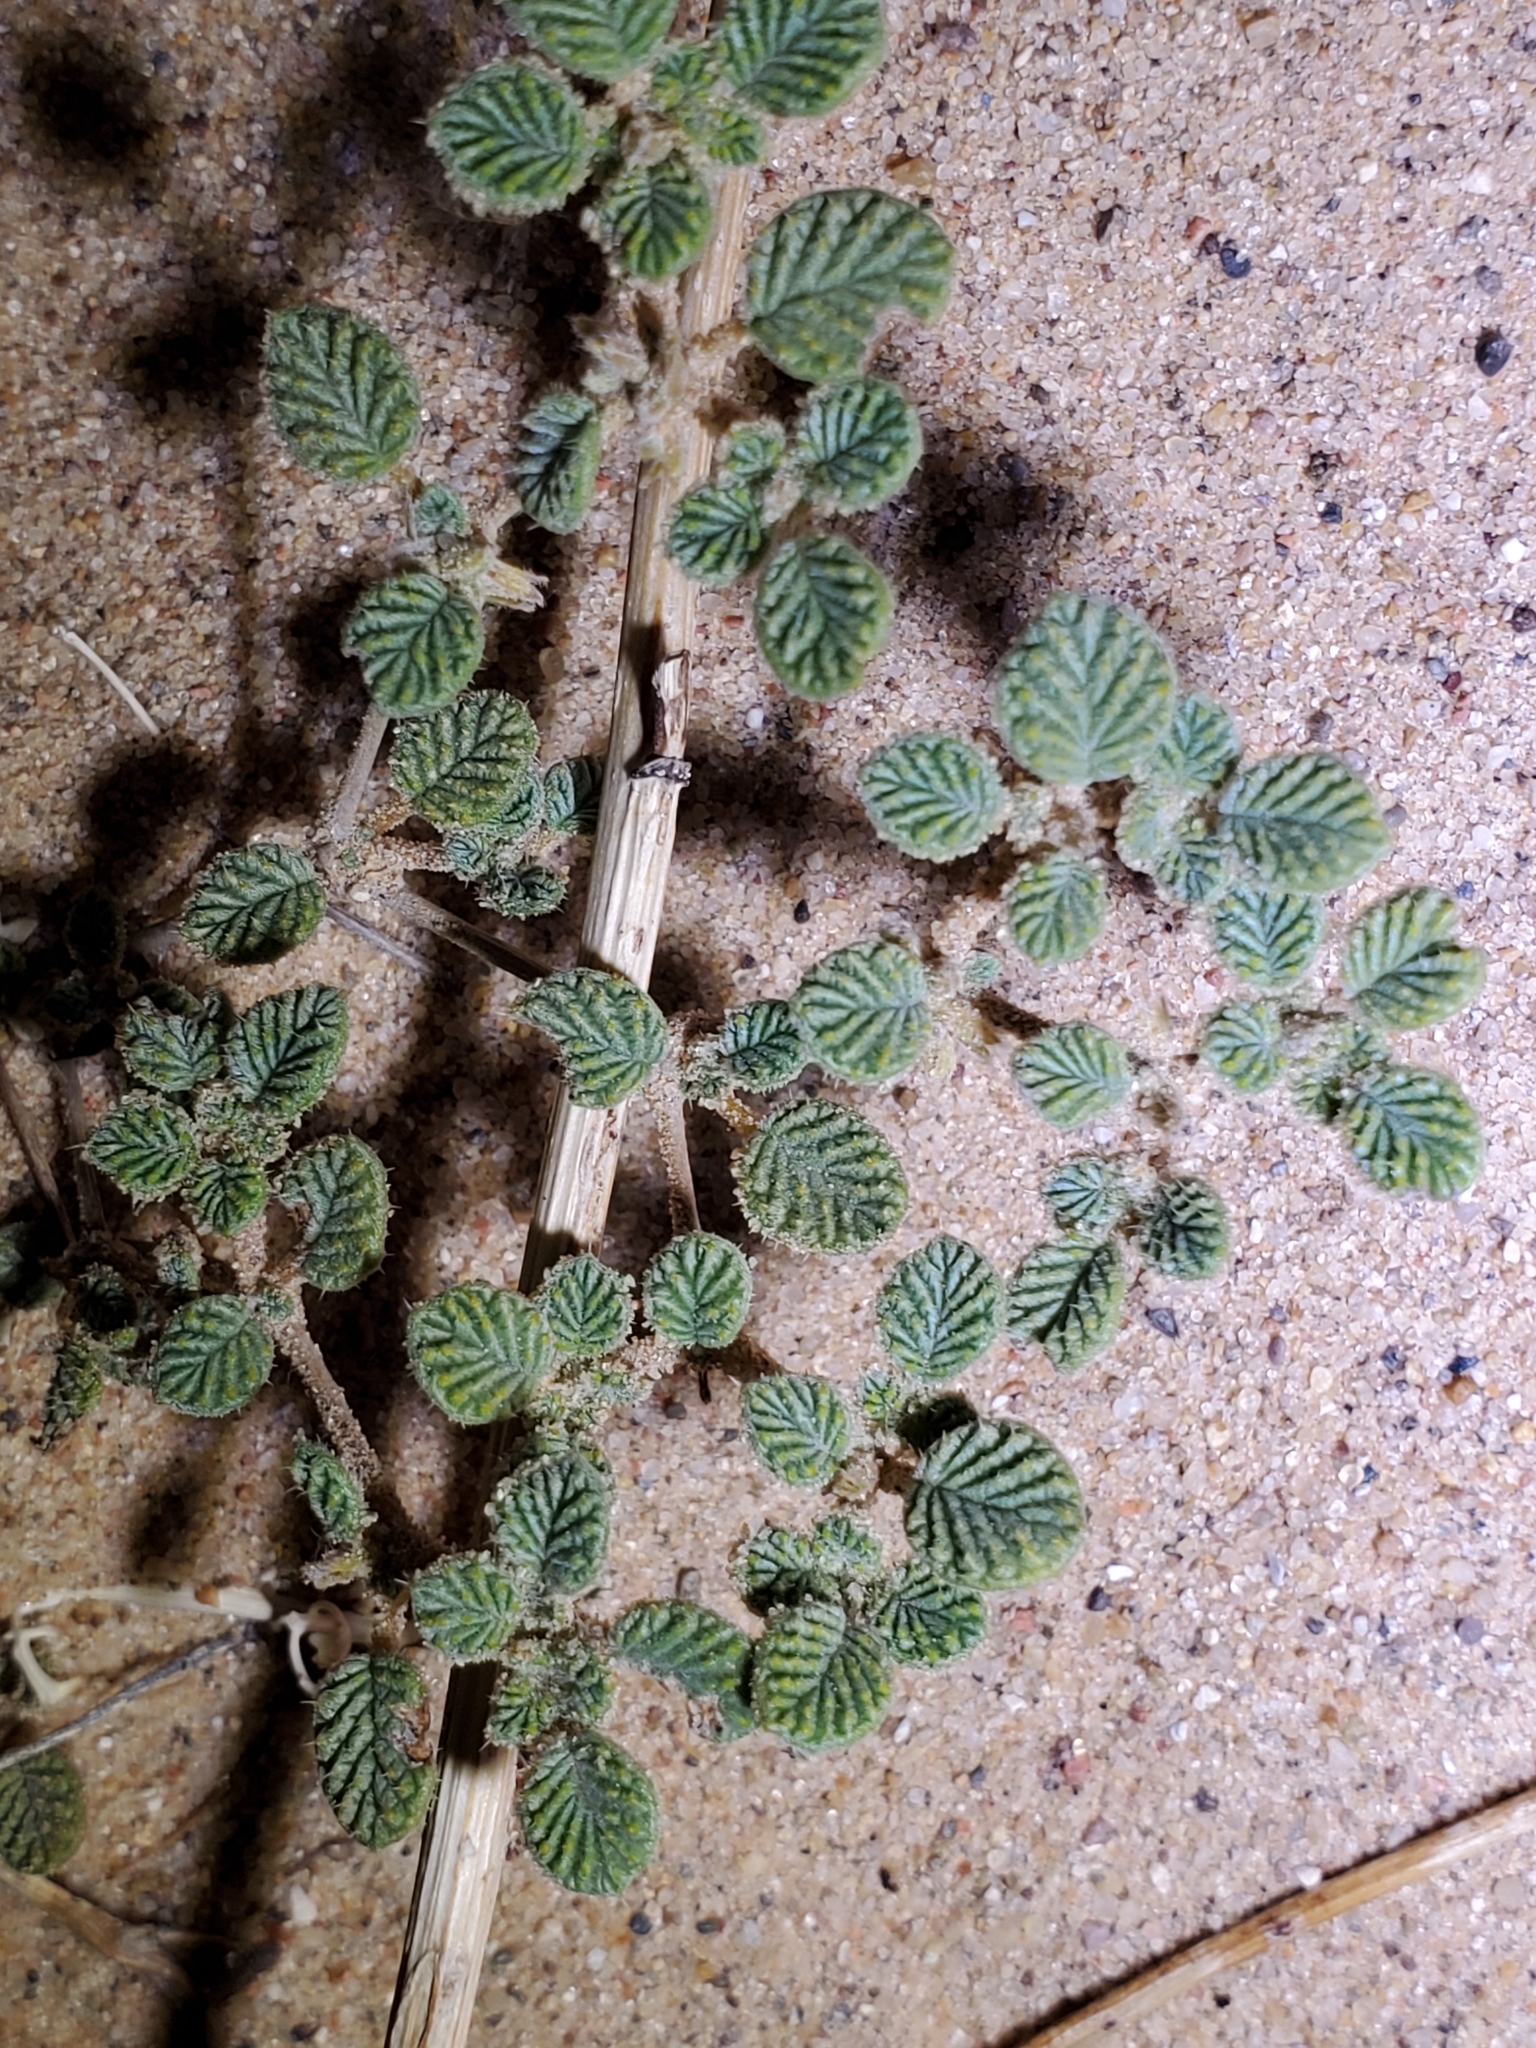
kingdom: Plantae
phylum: Tracheophyta
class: Magnoliopsida
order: Boraginales
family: Ehretiaceae
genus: Tiquilia
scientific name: Tiquilia plicata
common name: Fan-leaf tiquilia
